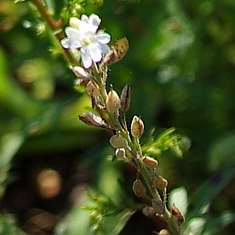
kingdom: Plantae
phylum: Tracheophyta
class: Magnoliopsida
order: Brassicales
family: Brassicaceae
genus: Berteroa
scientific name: Berteroa incana
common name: Hoary alison
